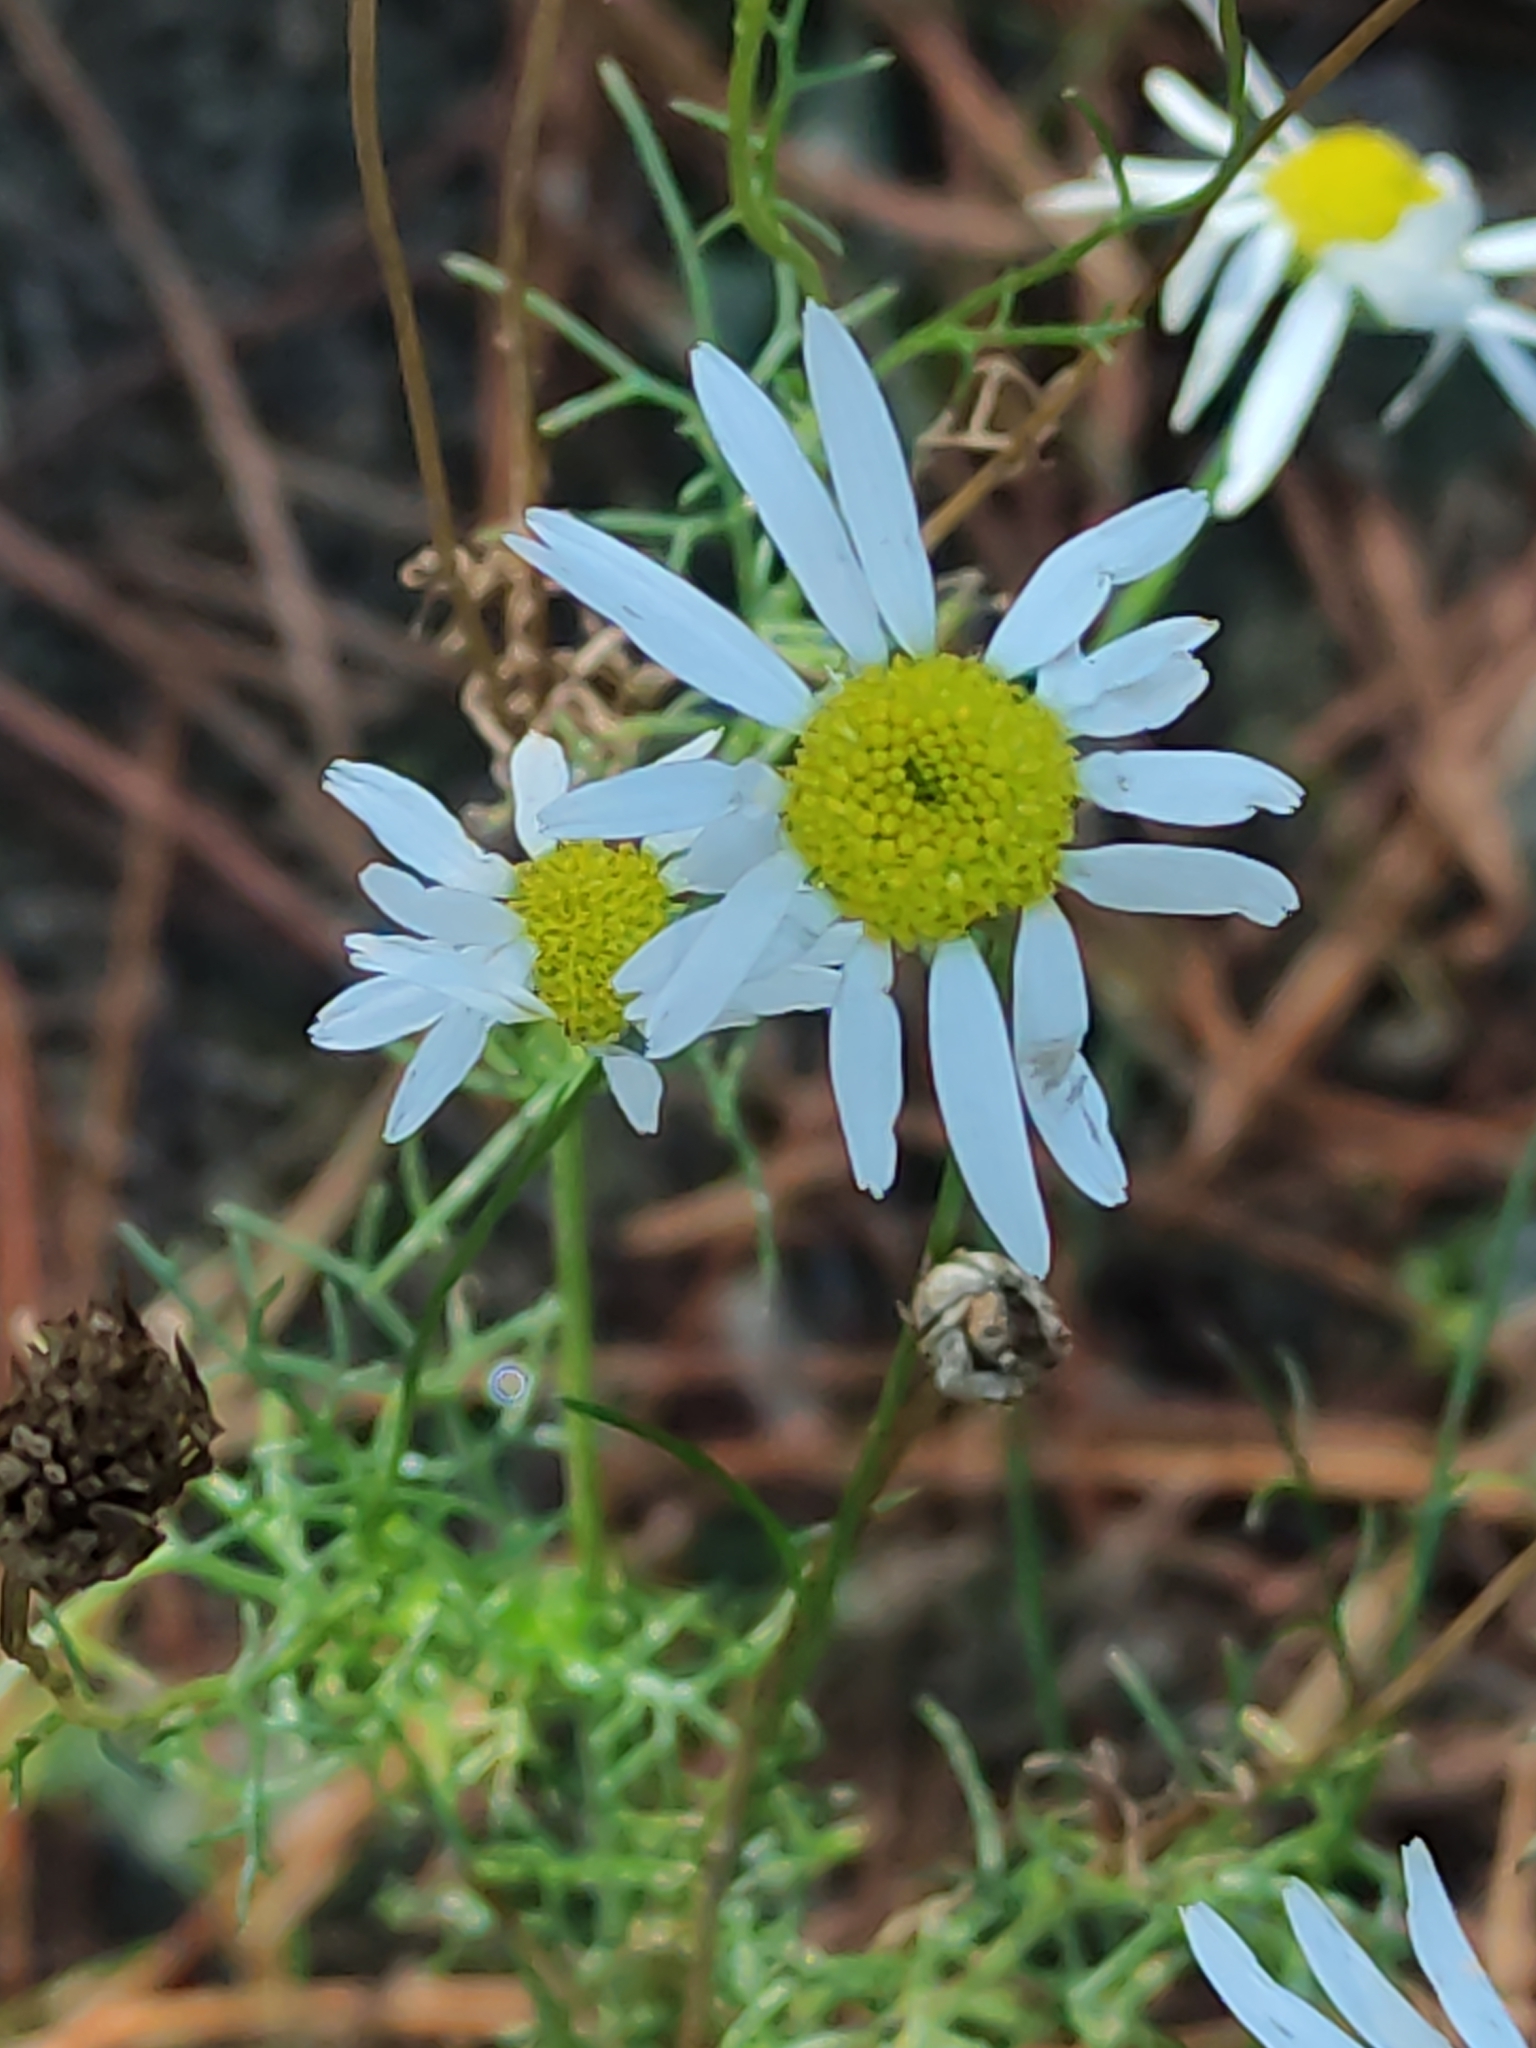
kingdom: Plantae
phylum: Tracheophyta
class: Magnoliopsida
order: Asterales
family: Asteraceae
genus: Tripleurospermum
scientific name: Tripleurospermum inodorum
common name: Scentless mayweed
